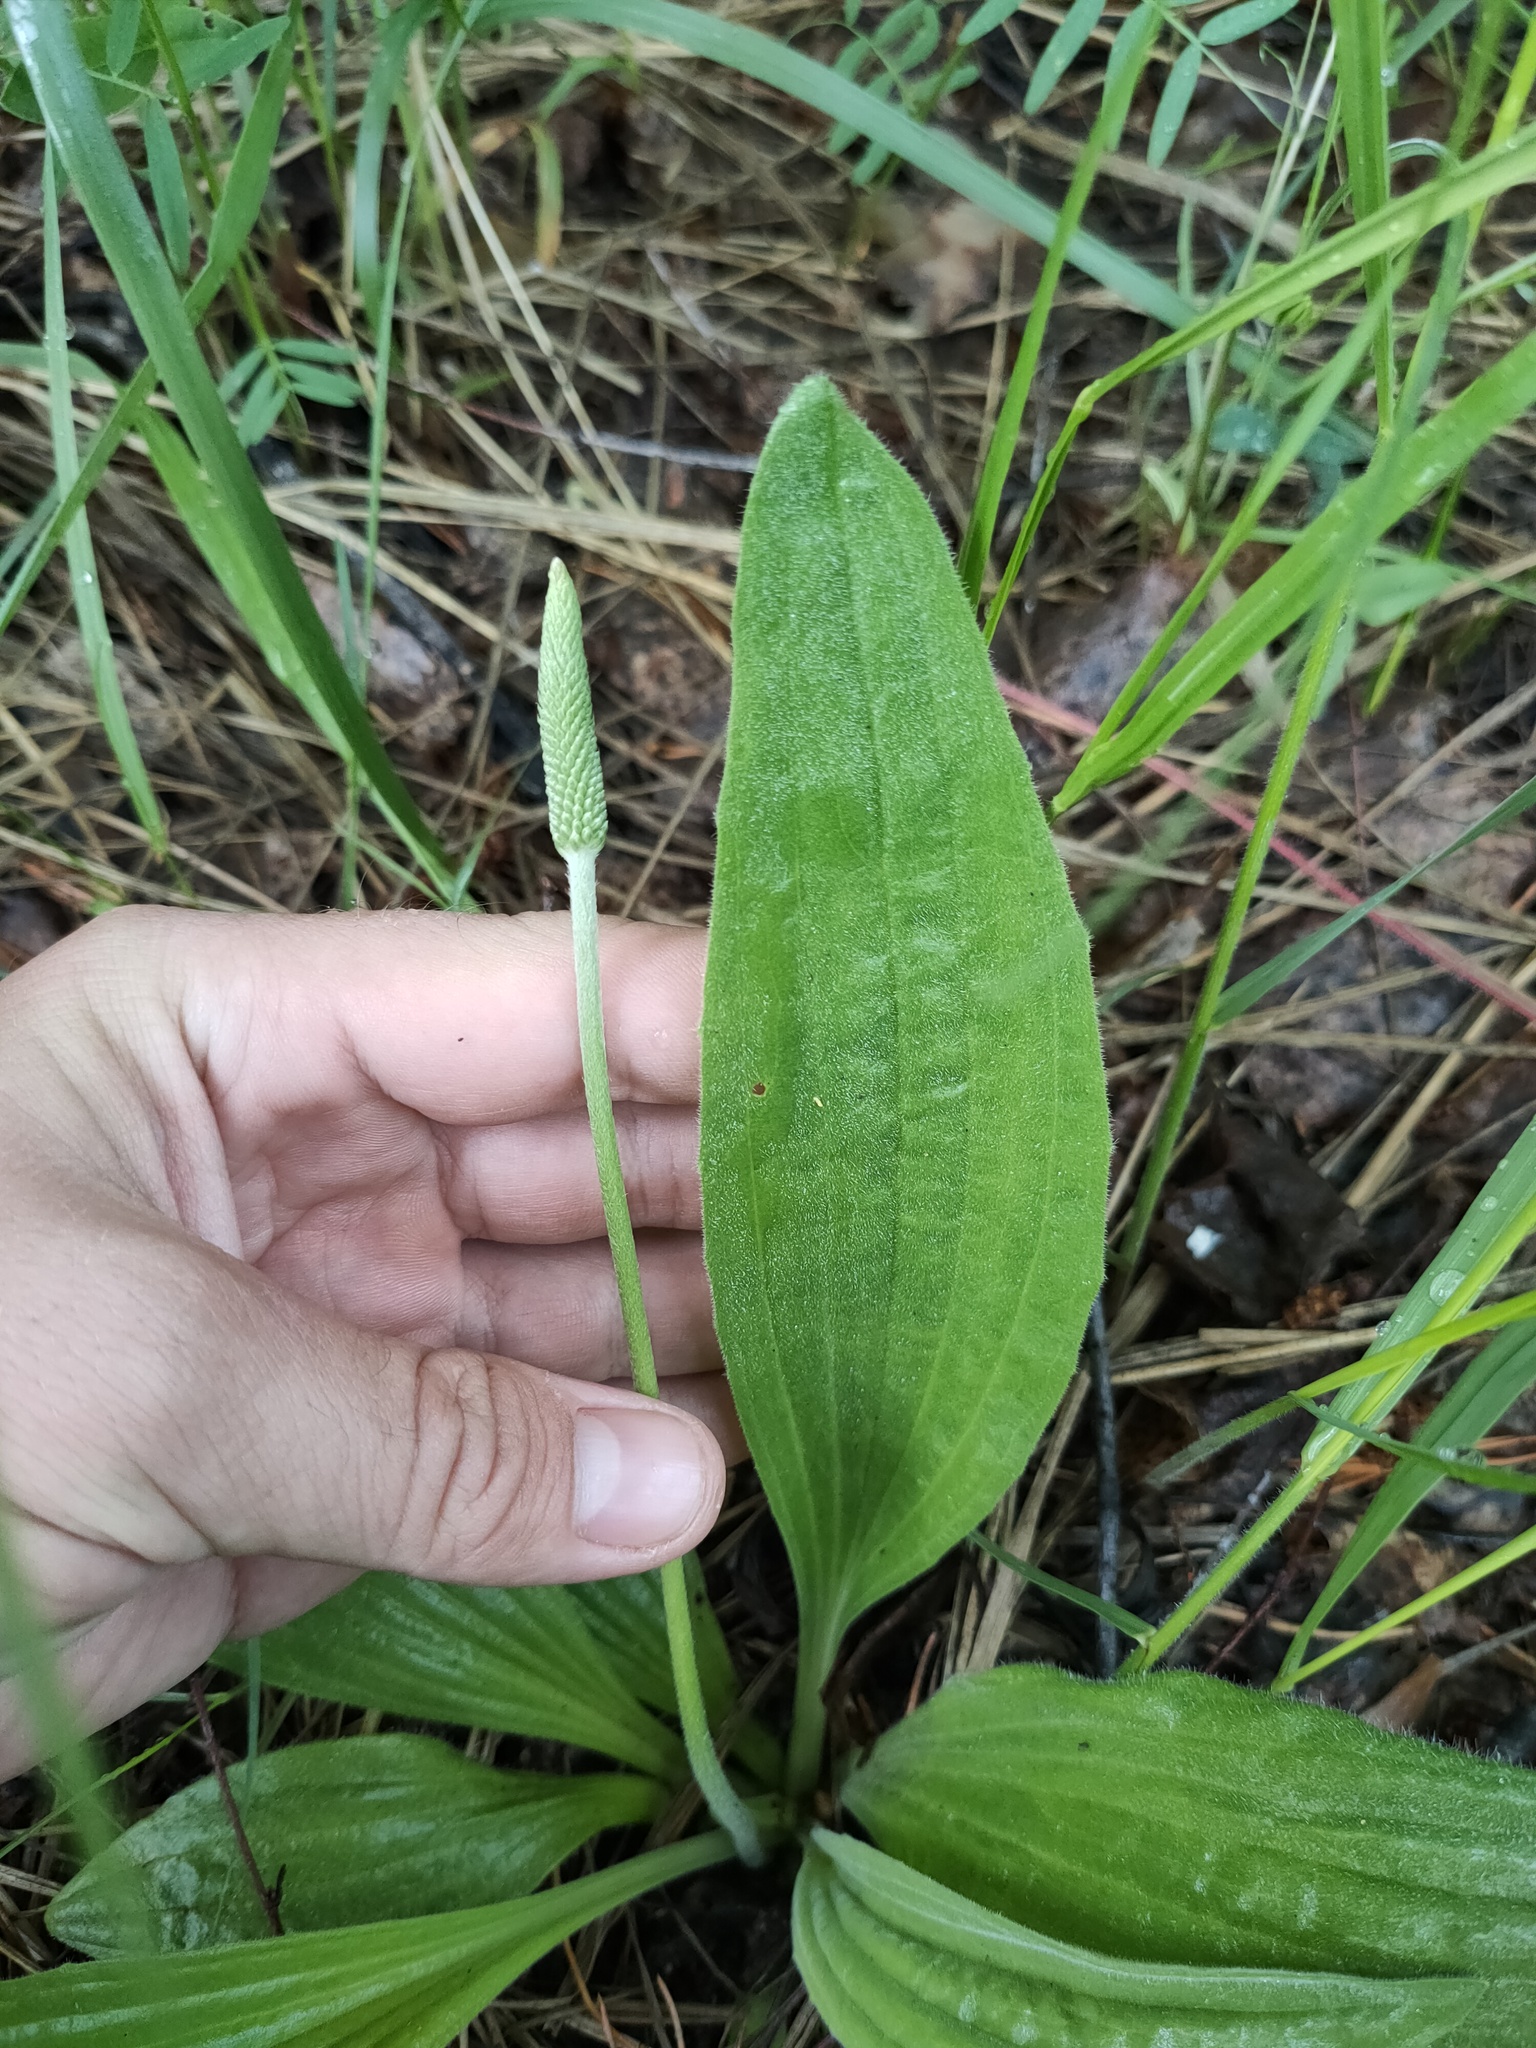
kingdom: Plantae
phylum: Tracheophyta
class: Magnoliopsida
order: Lamiales
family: Plantaginaceae
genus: Plantago
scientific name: Plantago urvillei
